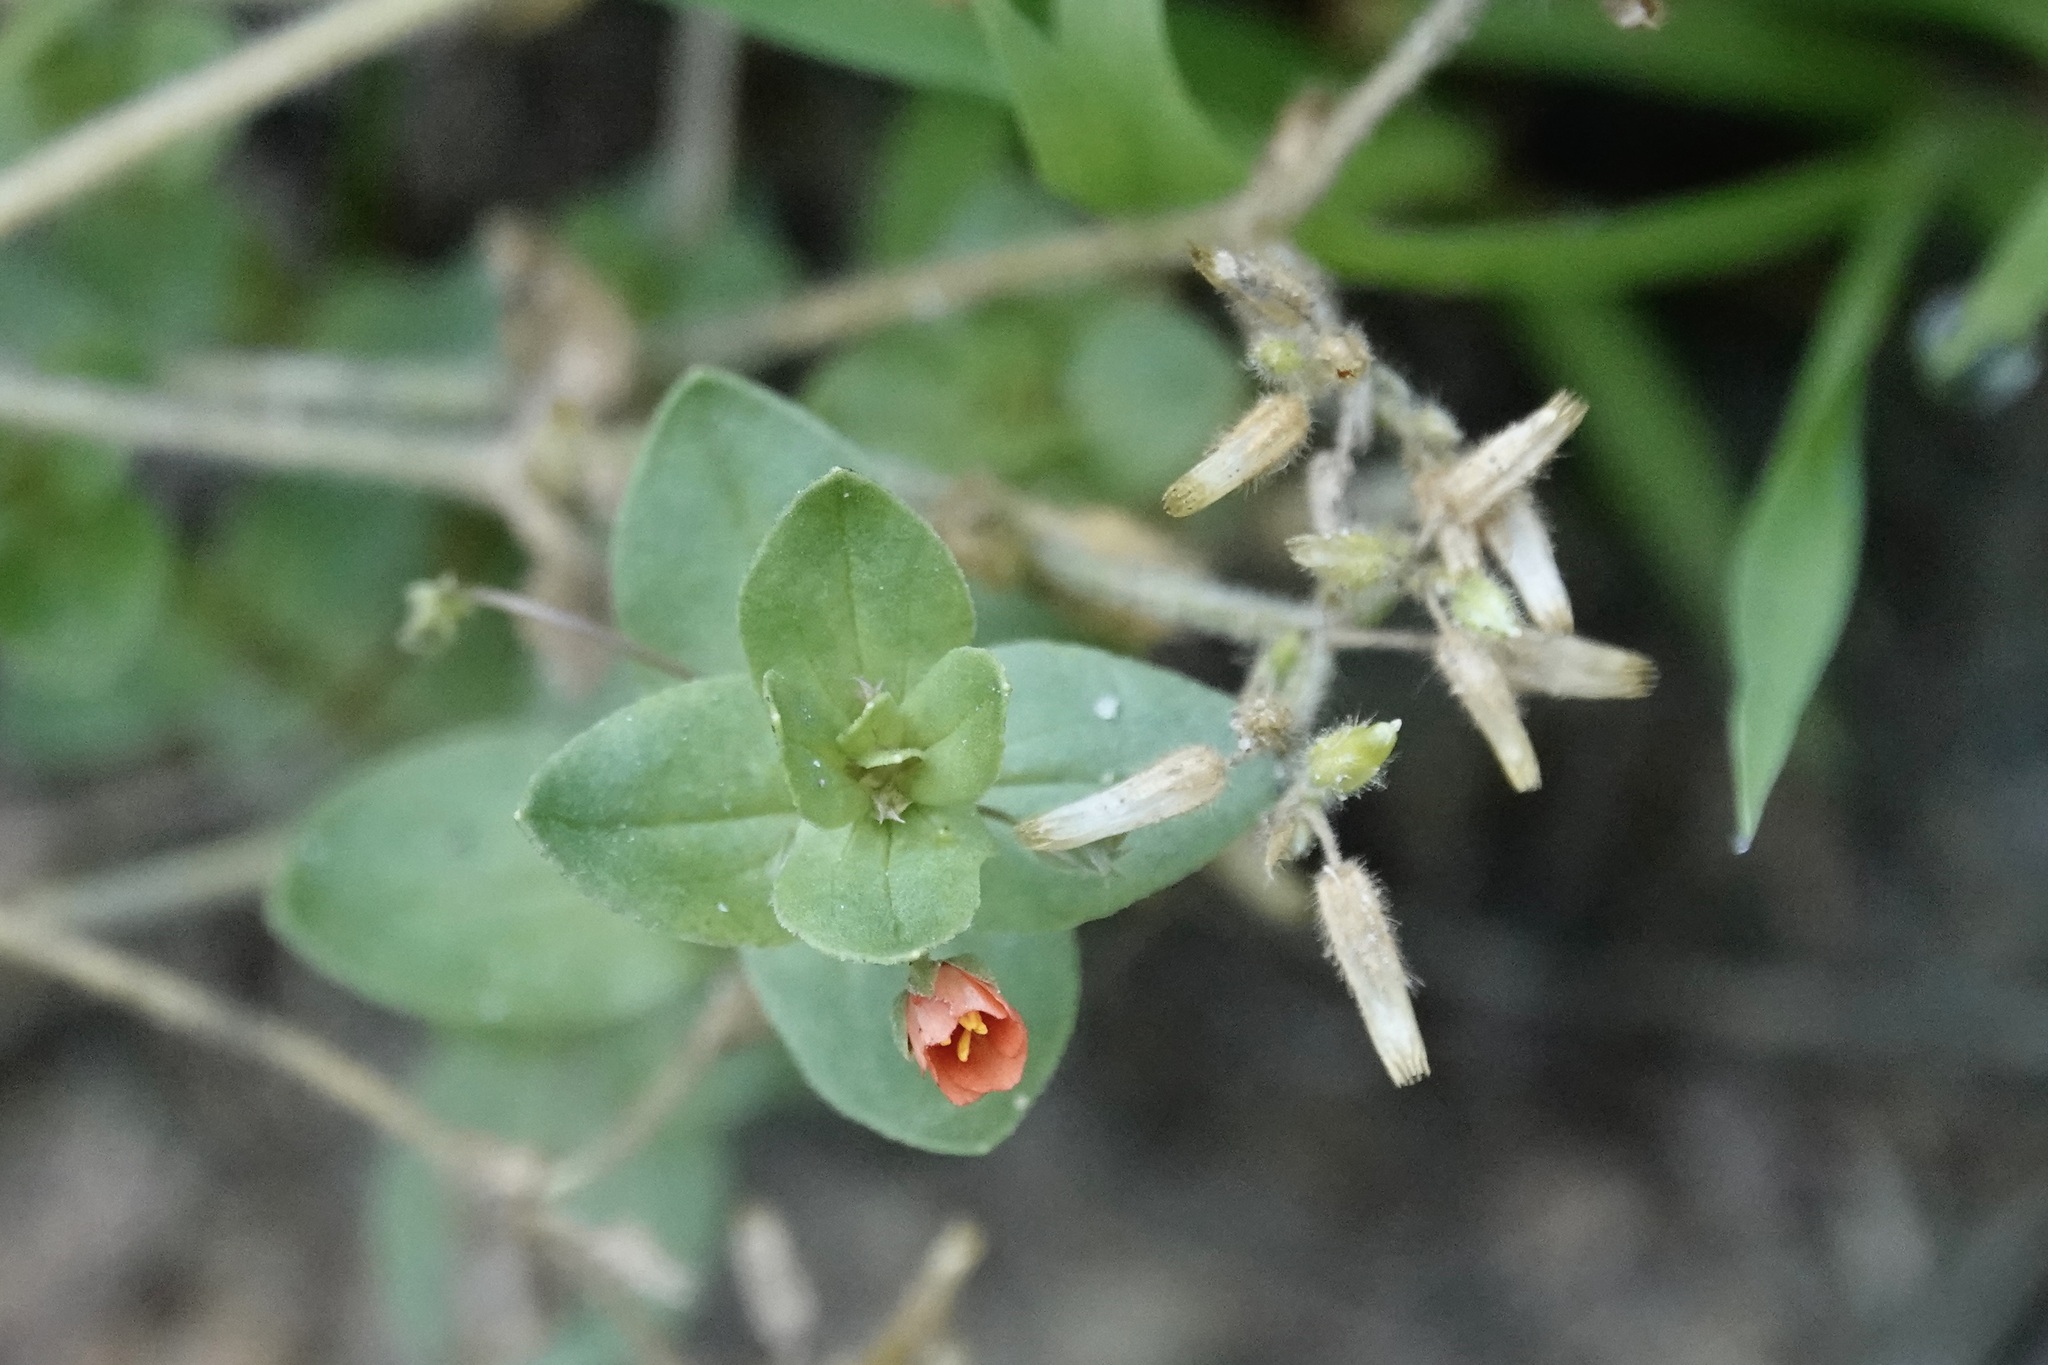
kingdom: Plantae
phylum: Tracheophyta
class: Magnoliopsida
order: Ericales
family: Primulaceae
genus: Lysimachia
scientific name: Lysimachia arvensis
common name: Scarlet pimpernel
